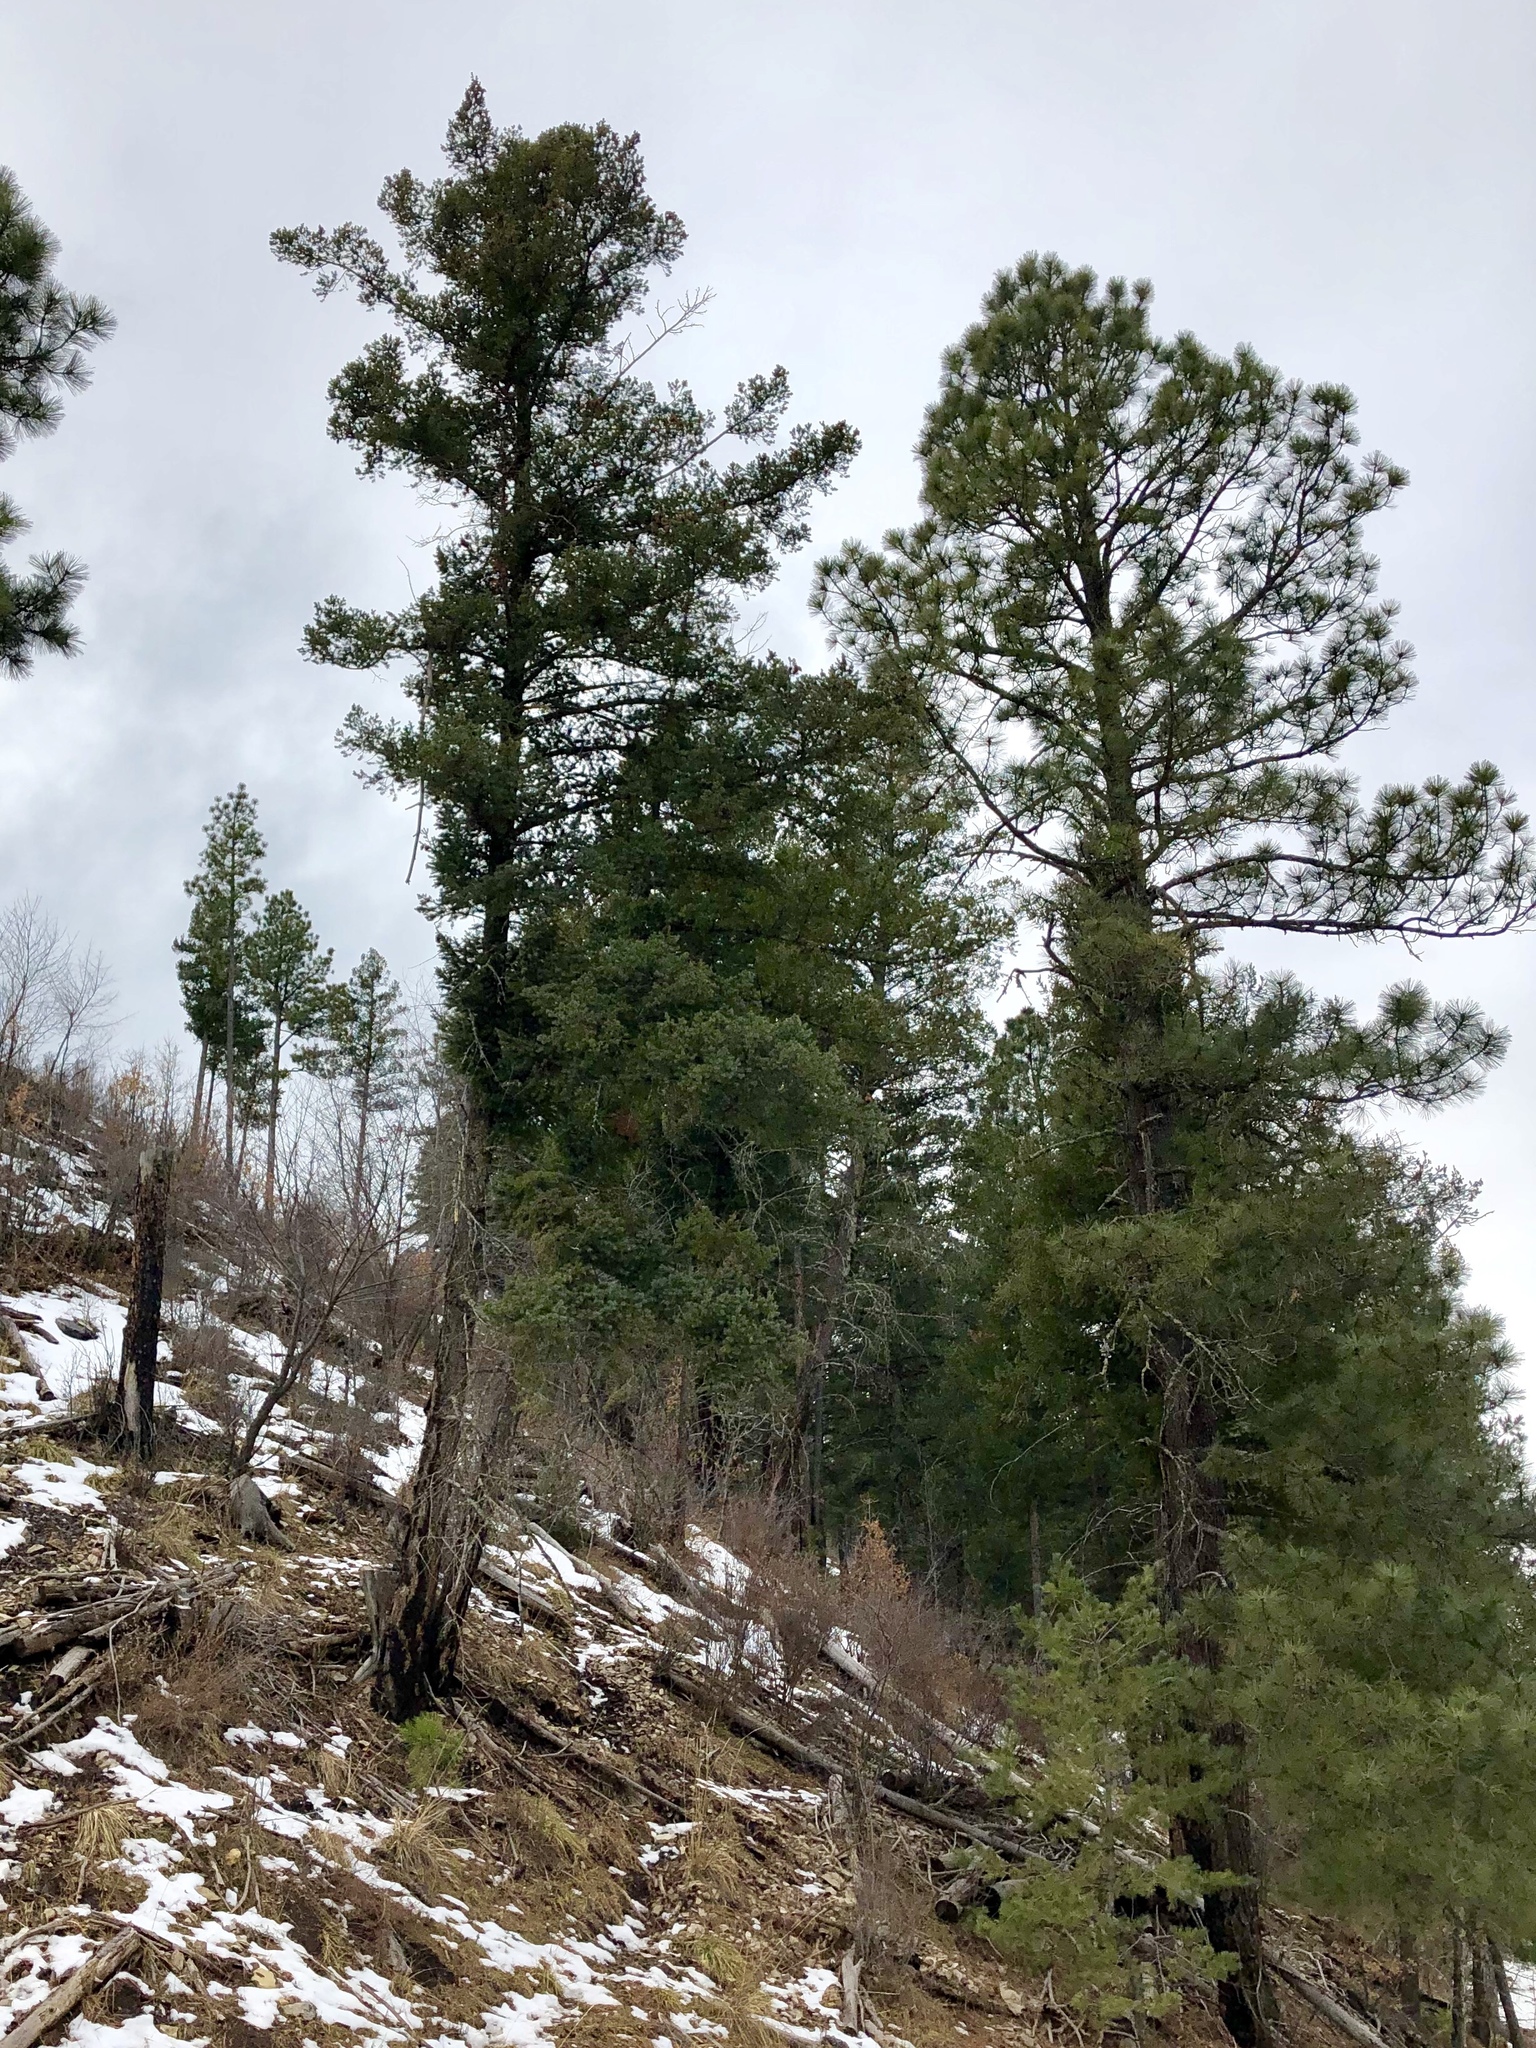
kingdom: Plantae
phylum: Tracheophyta
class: Pinopsida
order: Pinales
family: Pinaceae
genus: Pinus
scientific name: Pinus ponderosa
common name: Western yellow-pine
